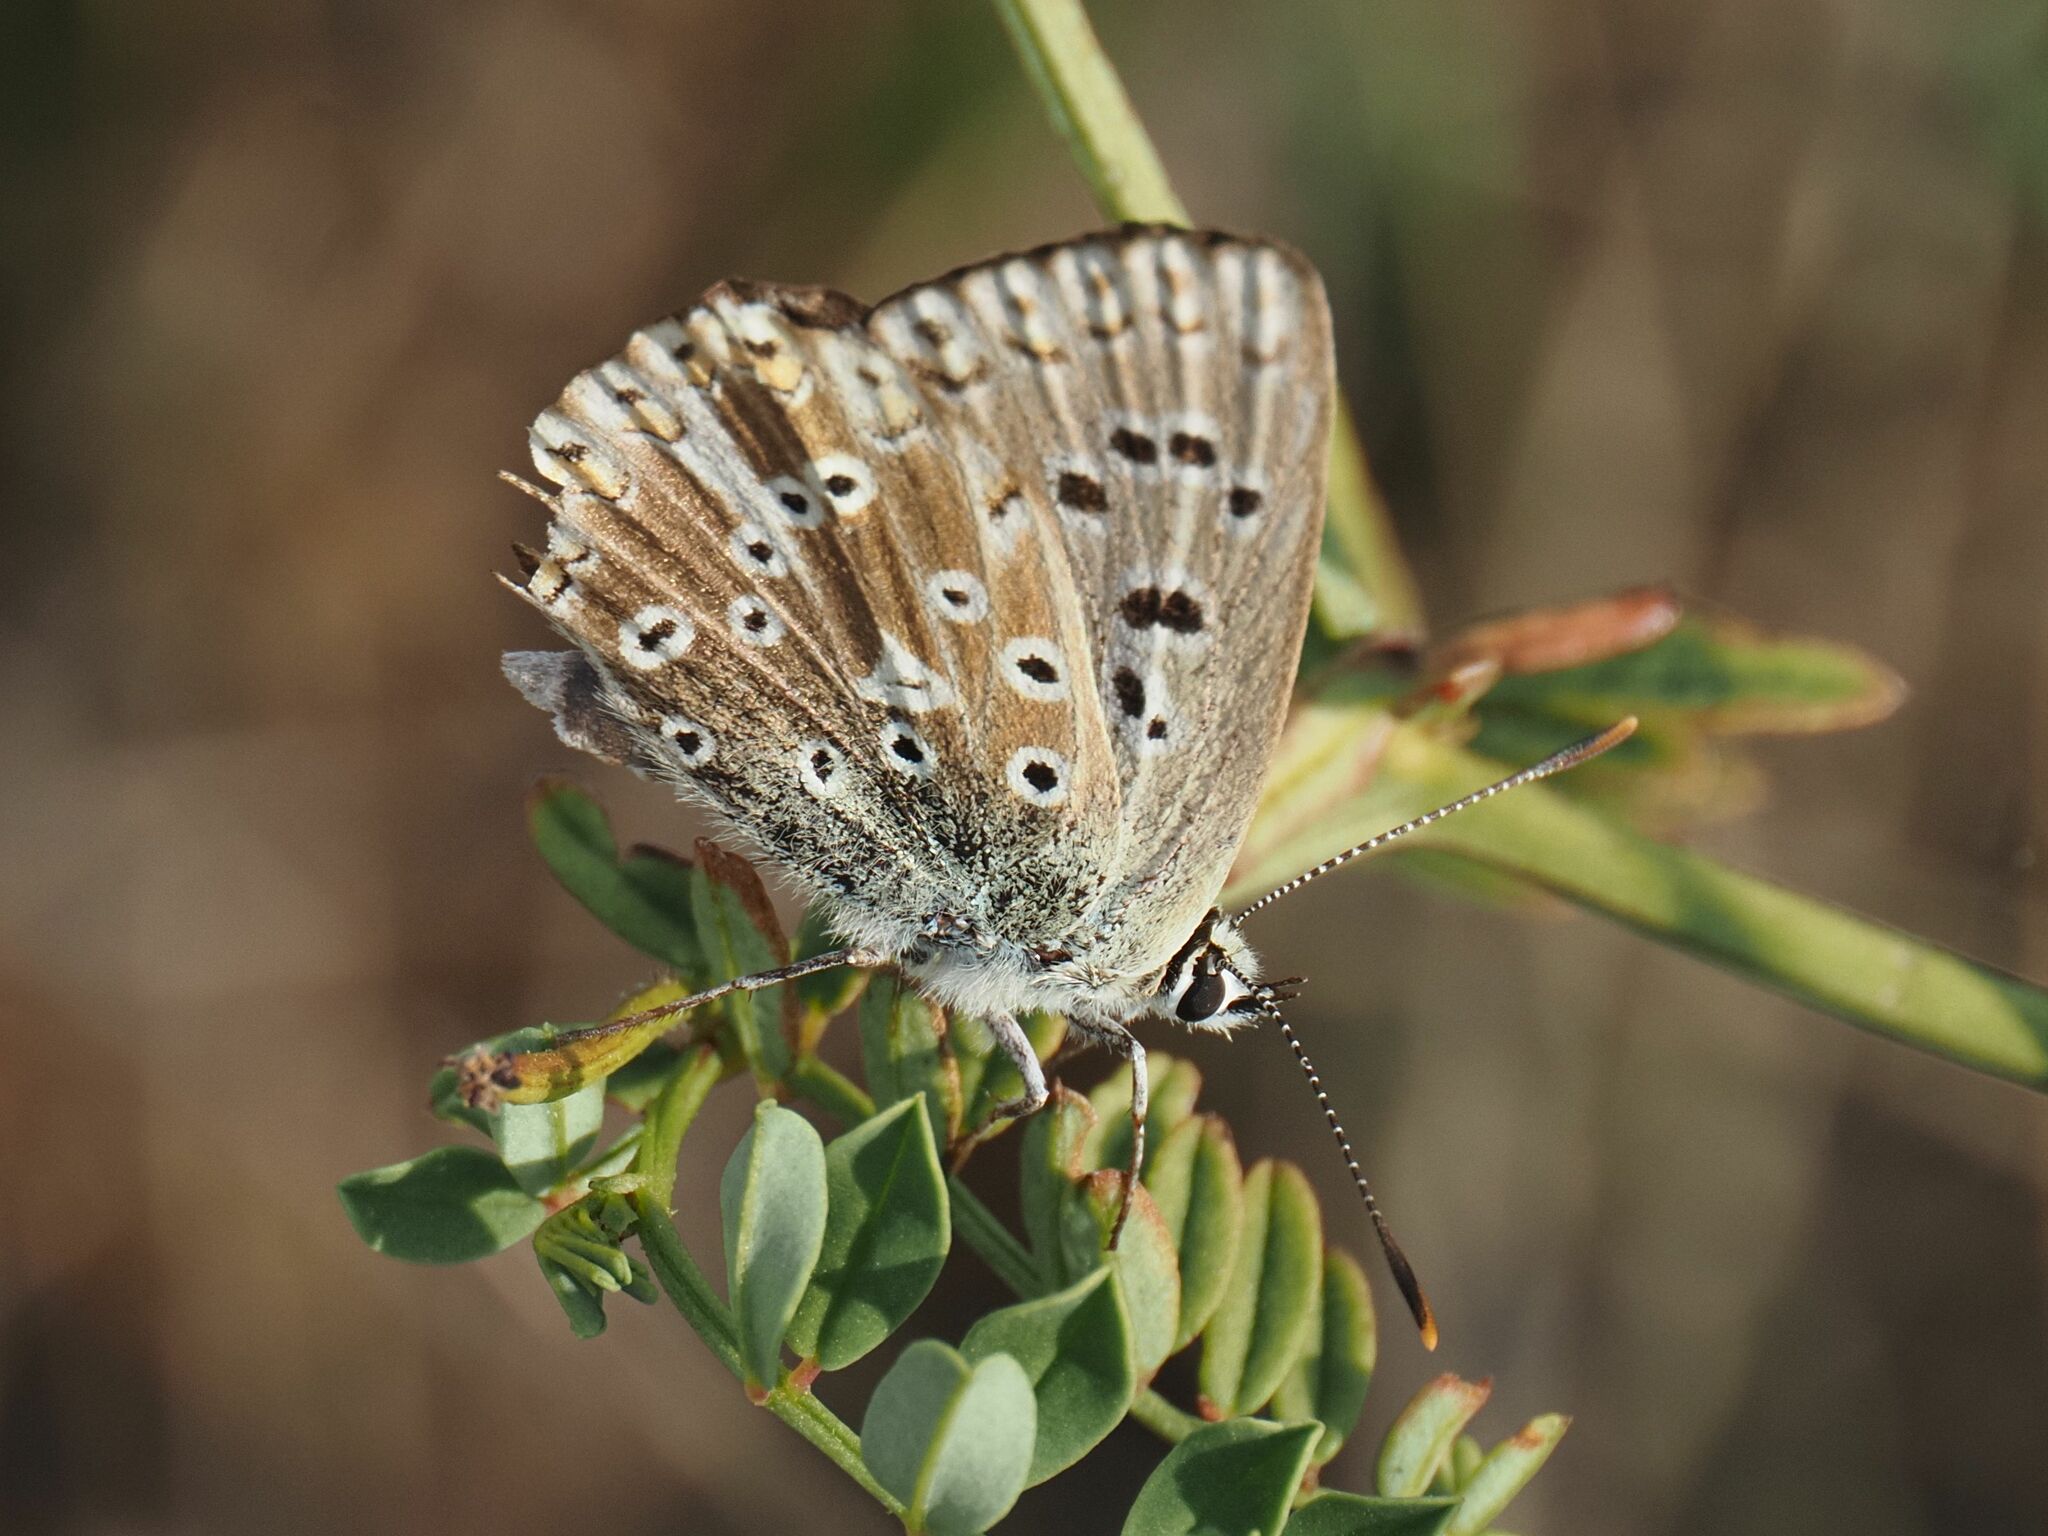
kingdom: Animalia
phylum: Arthropoda
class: Insecta
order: Lepidoptera
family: Lycaenidae
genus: Lysandra
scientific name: Lysandra coridon
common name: Chalkhill blue
